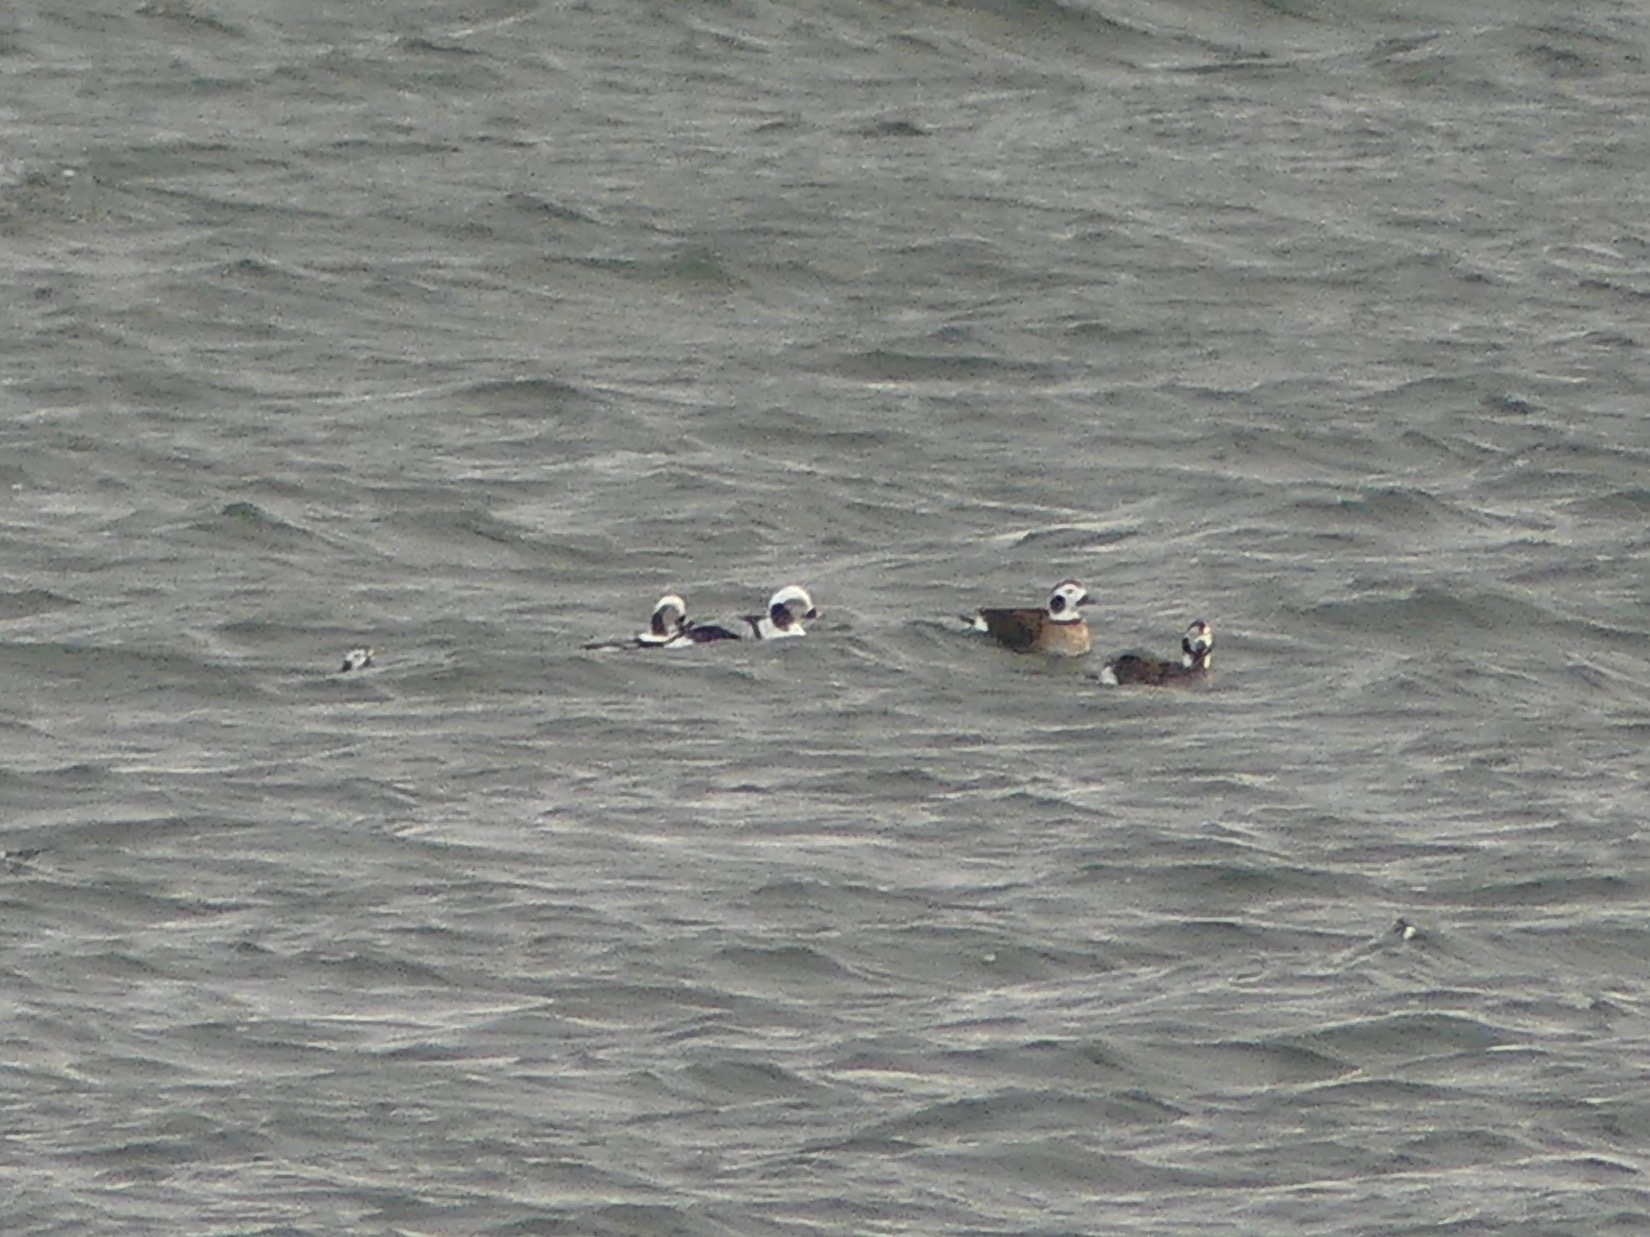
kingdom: Animalia
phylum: Chordata
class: Aves
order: Anseriformes
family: Anatidae
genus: Clangula
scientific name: Clangula hyemalis
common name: Long-tailed duck
